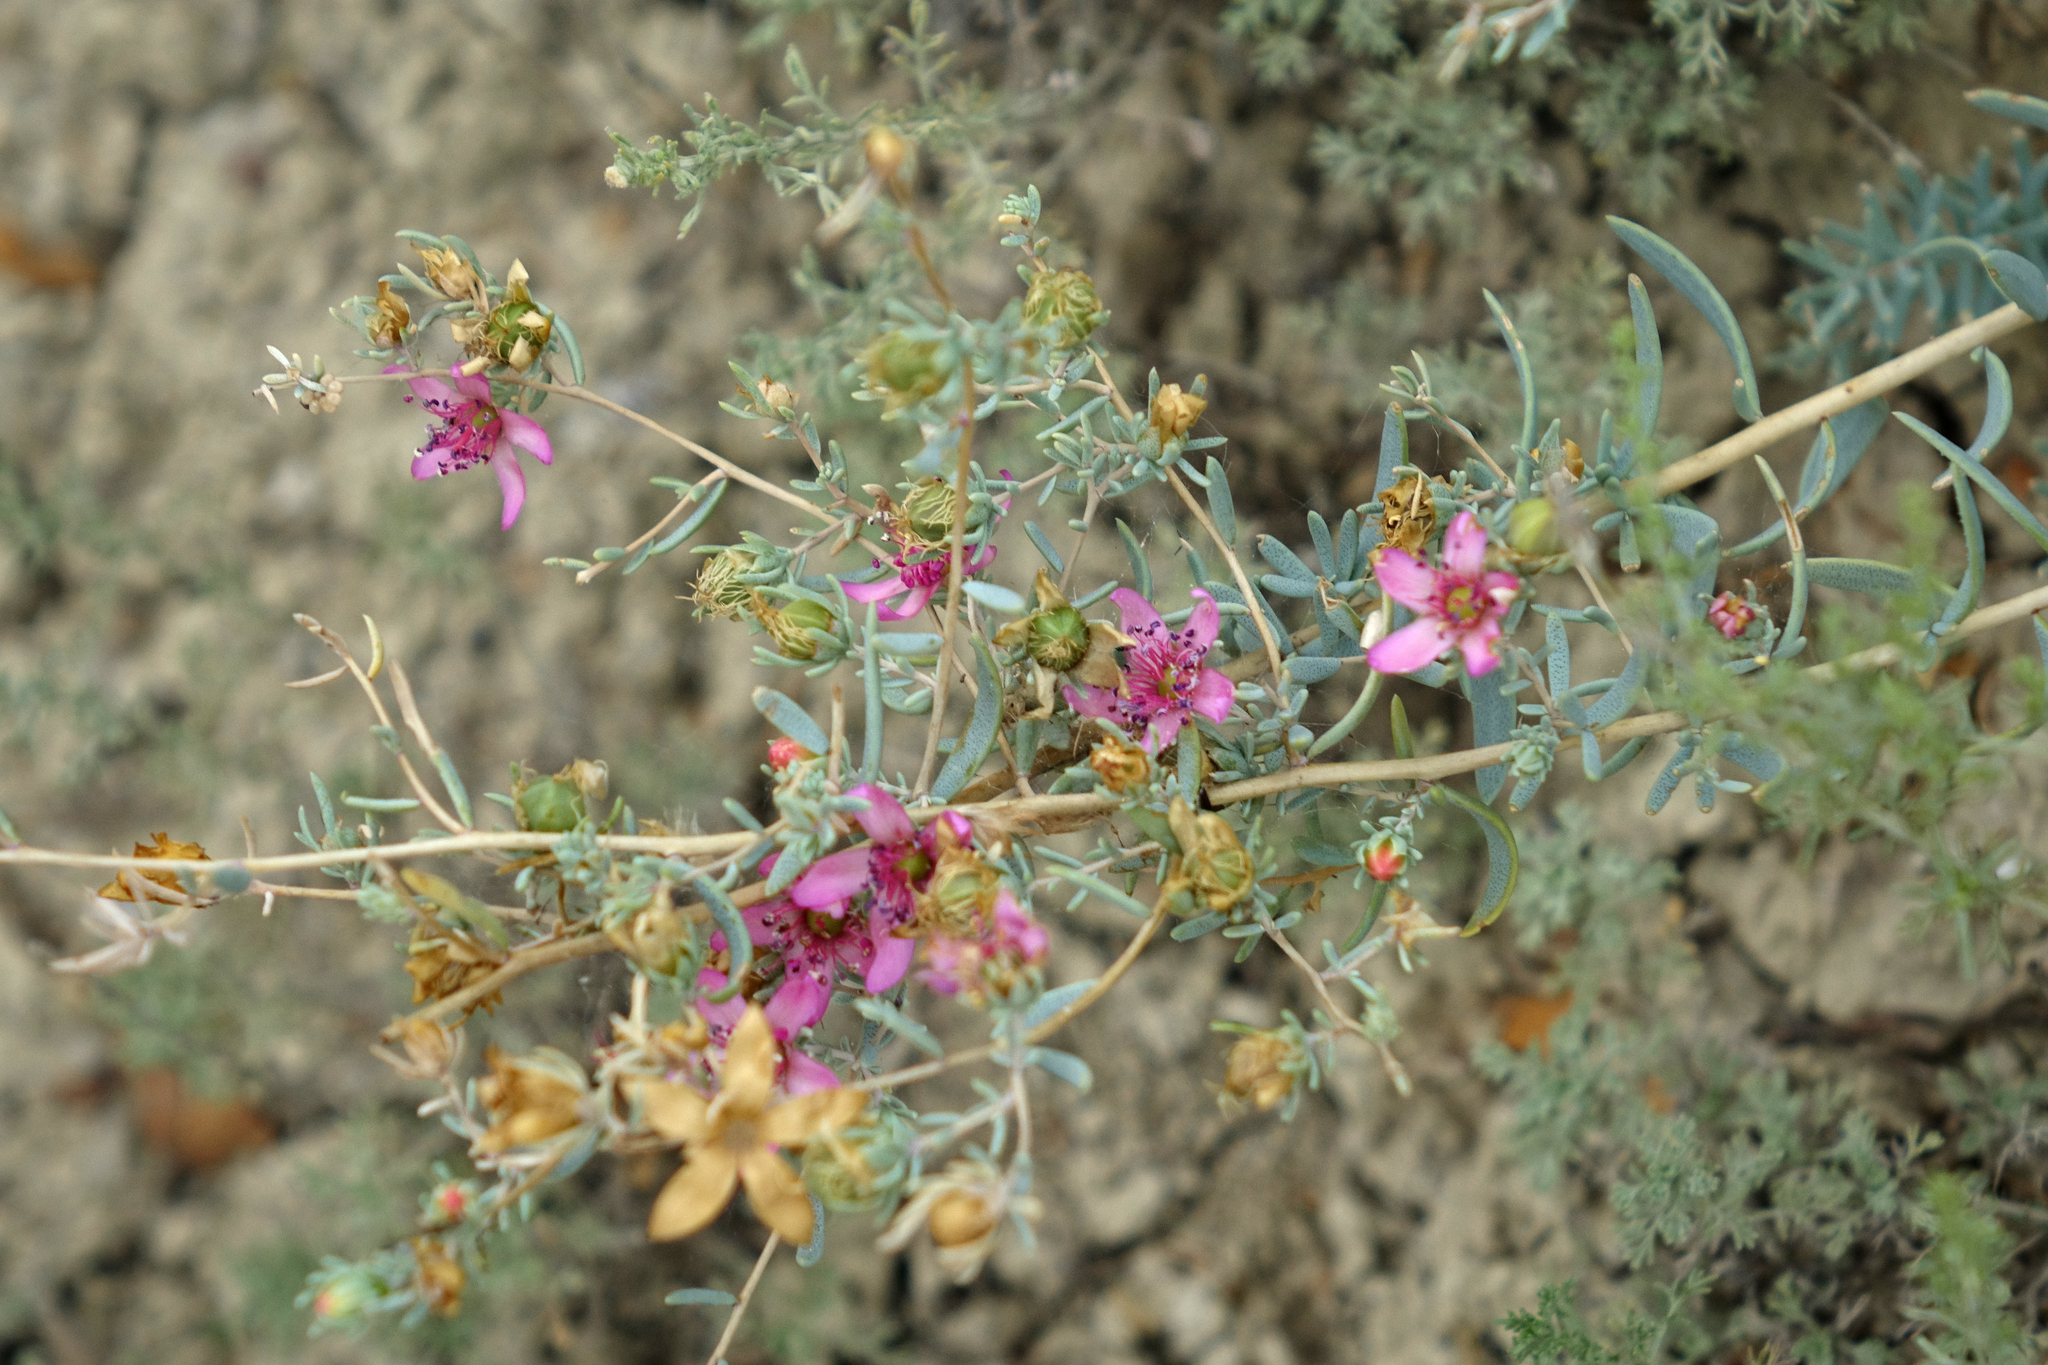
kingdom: Plantae
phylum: Tracheophyta
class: Magnoliopsida
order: Caryophyllales
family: Tamaricaceae
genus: Reaumuria
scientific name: Reaumuria alternifolia
